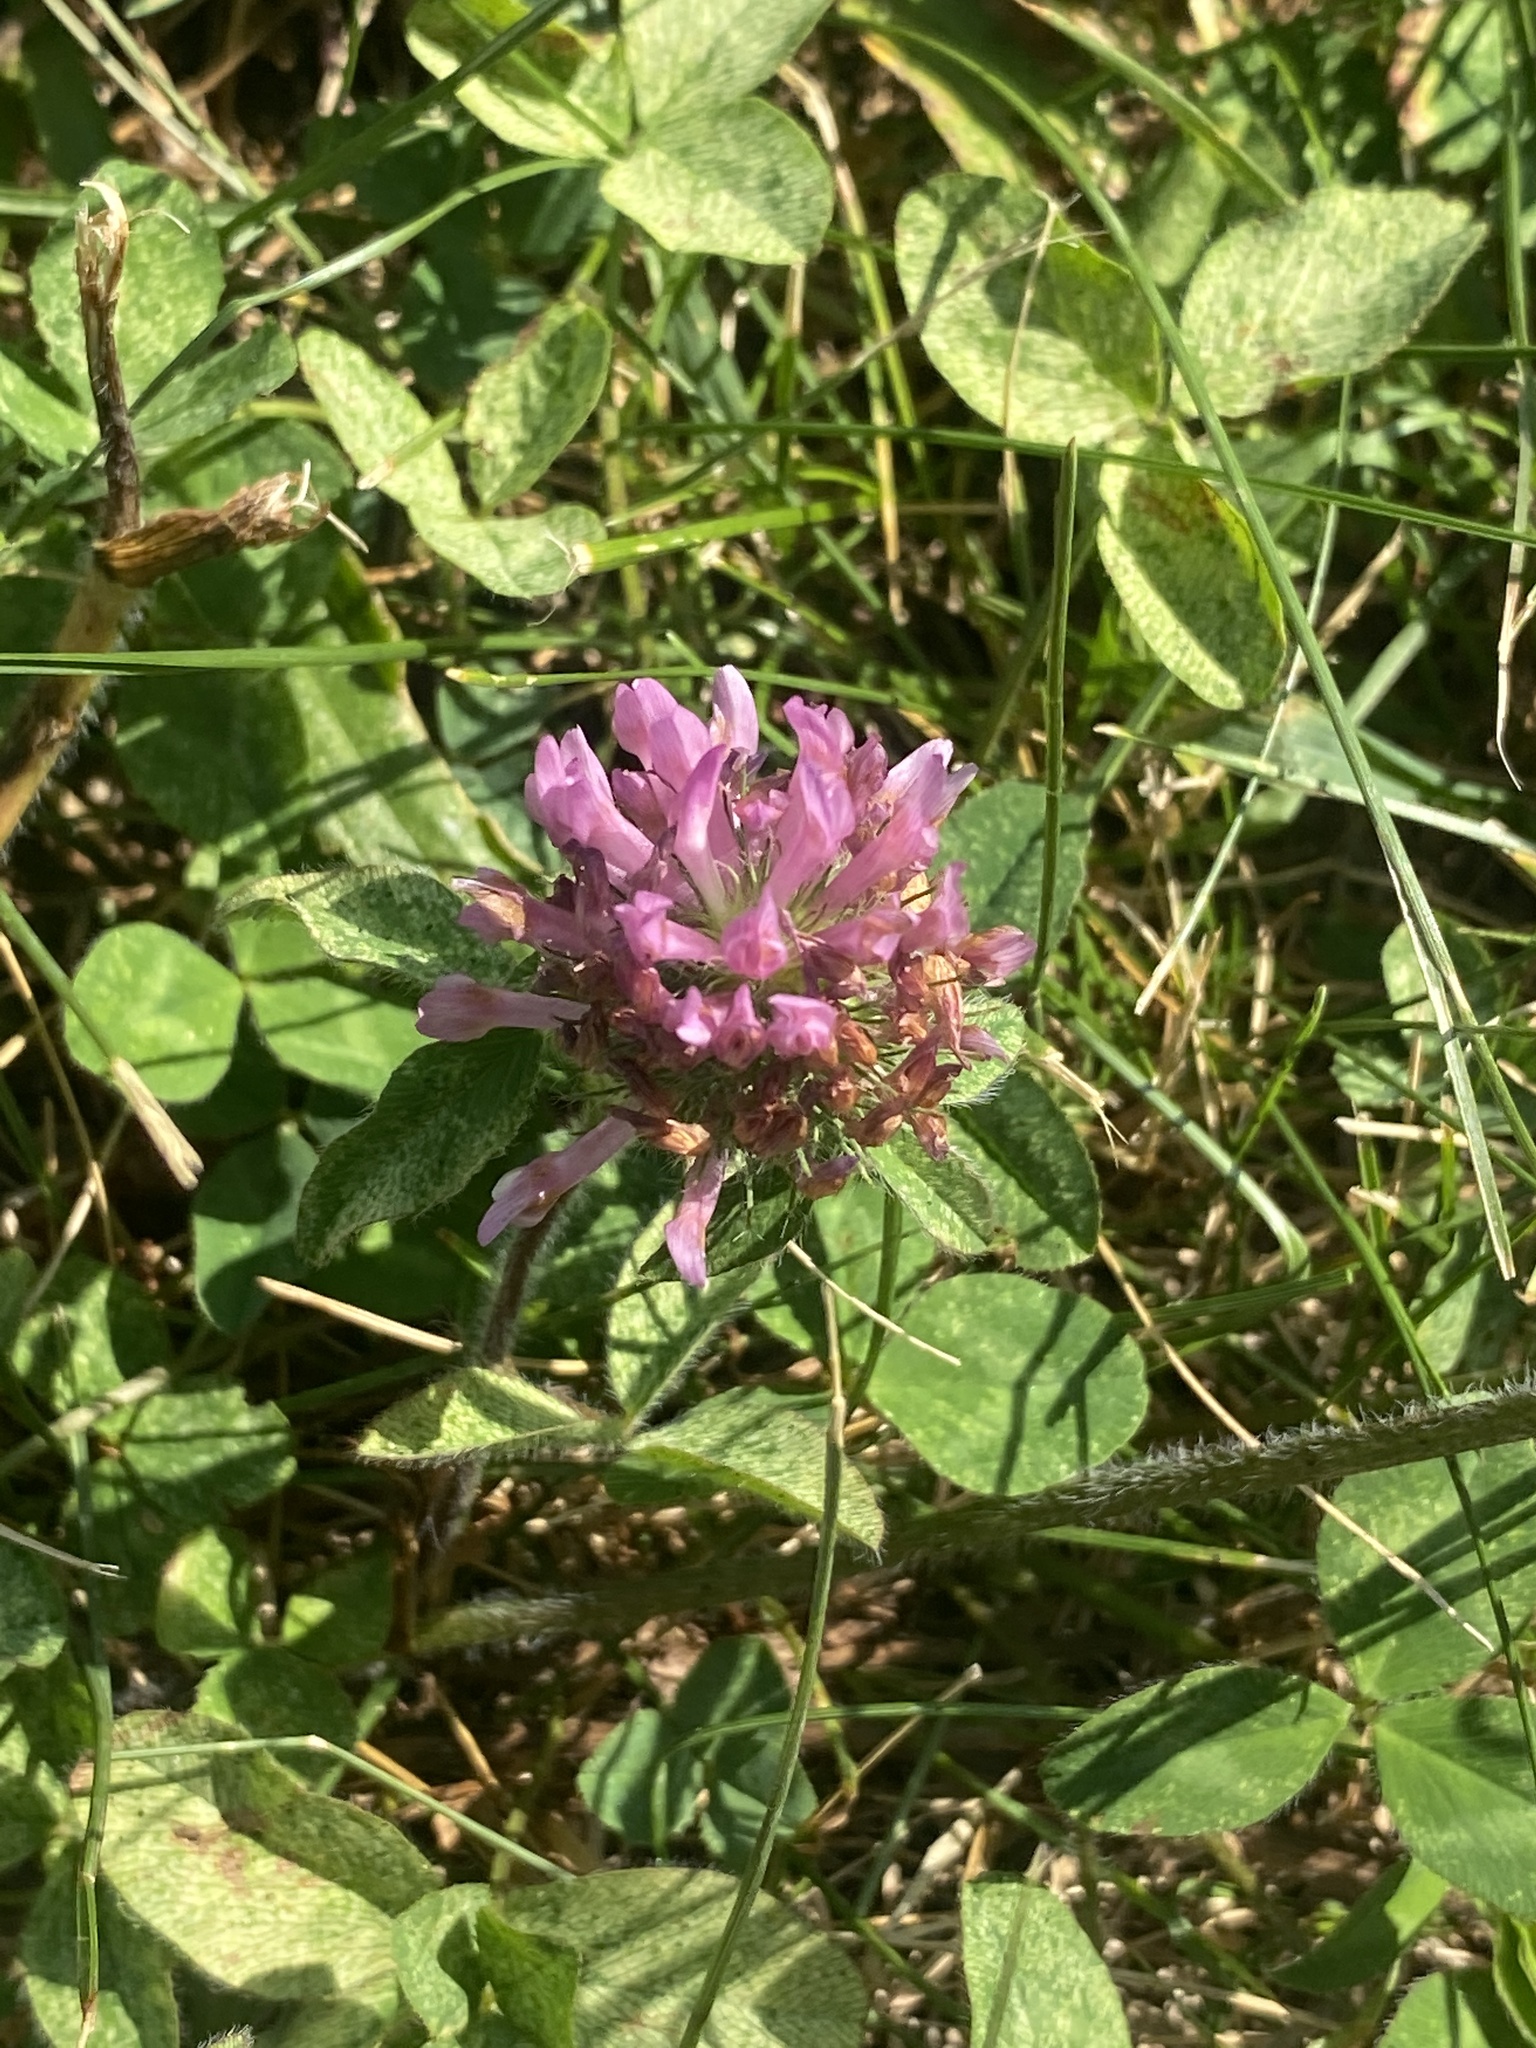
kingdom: Plantae
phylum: Tracheophyta
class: Magnoliopsida
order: Fabales
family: Fabaceae
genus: Trifolium
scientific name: Trifolium pratense
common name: Red clover
